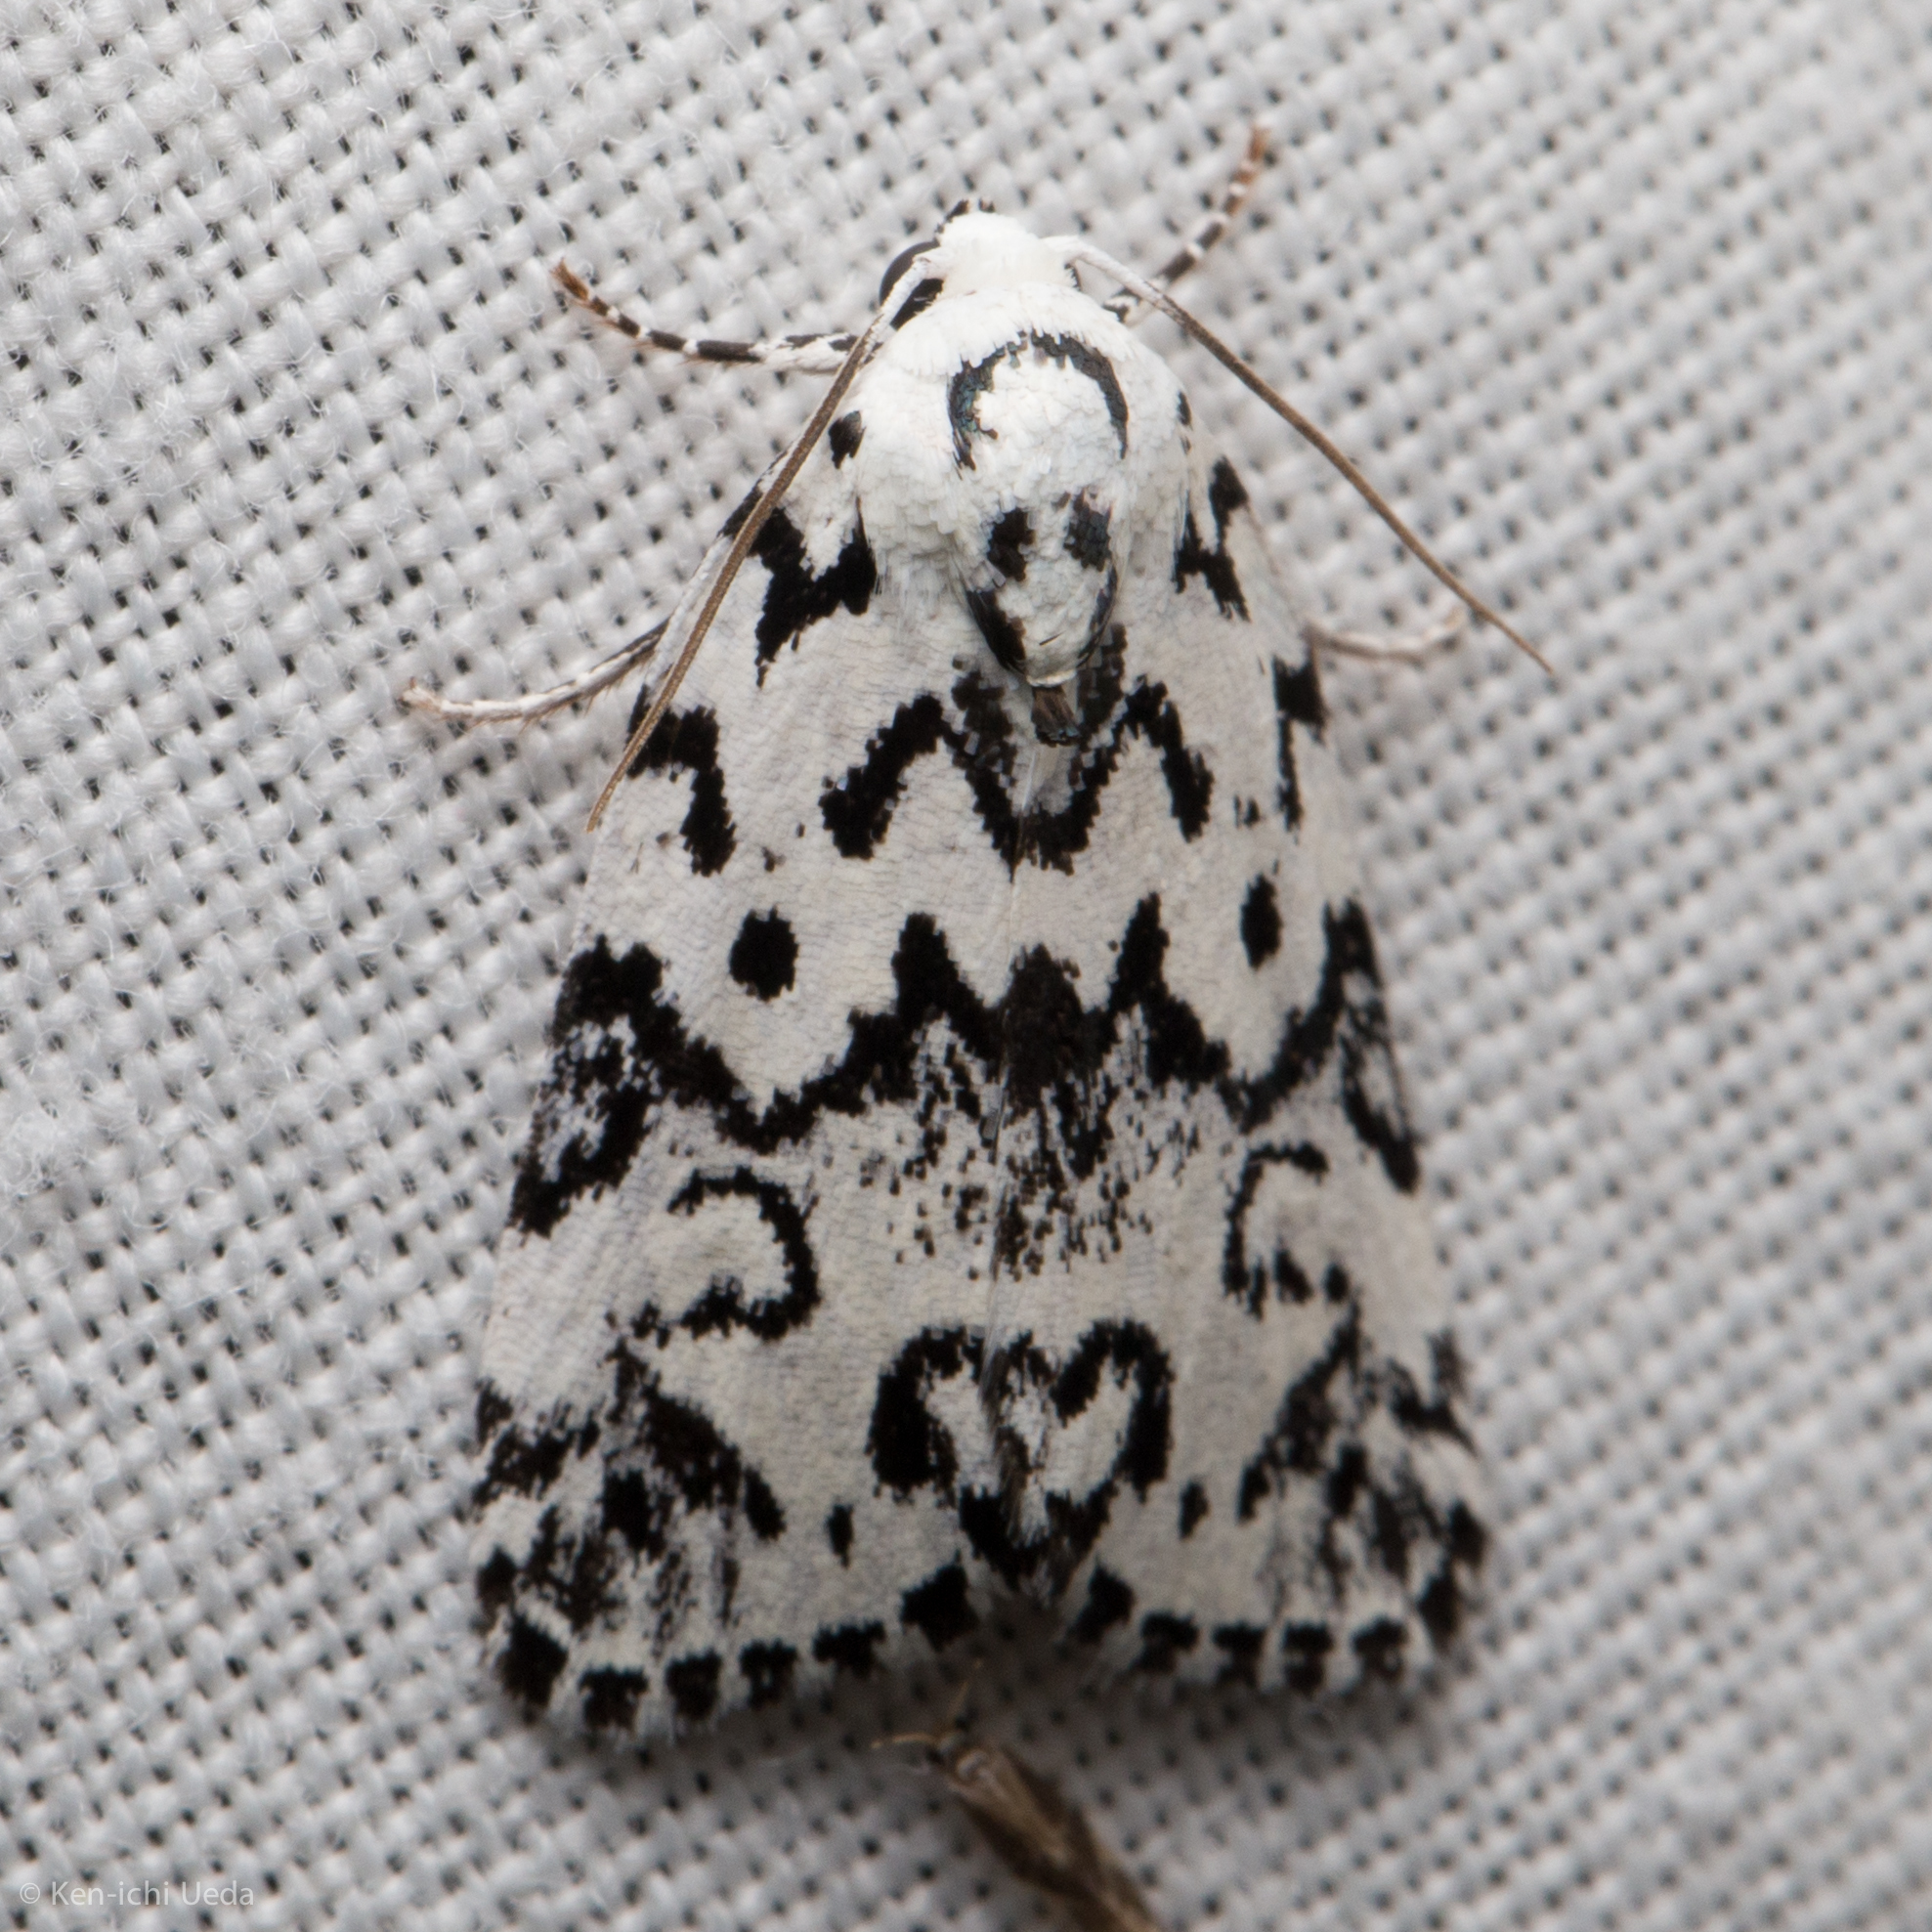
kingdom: Animalia
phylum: Arthropoda
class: Insecta
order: Lepidoptera
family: Noctuidae
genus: Polygrammate
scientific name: Polygrammate hebraeicum
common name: Hebrew moth
